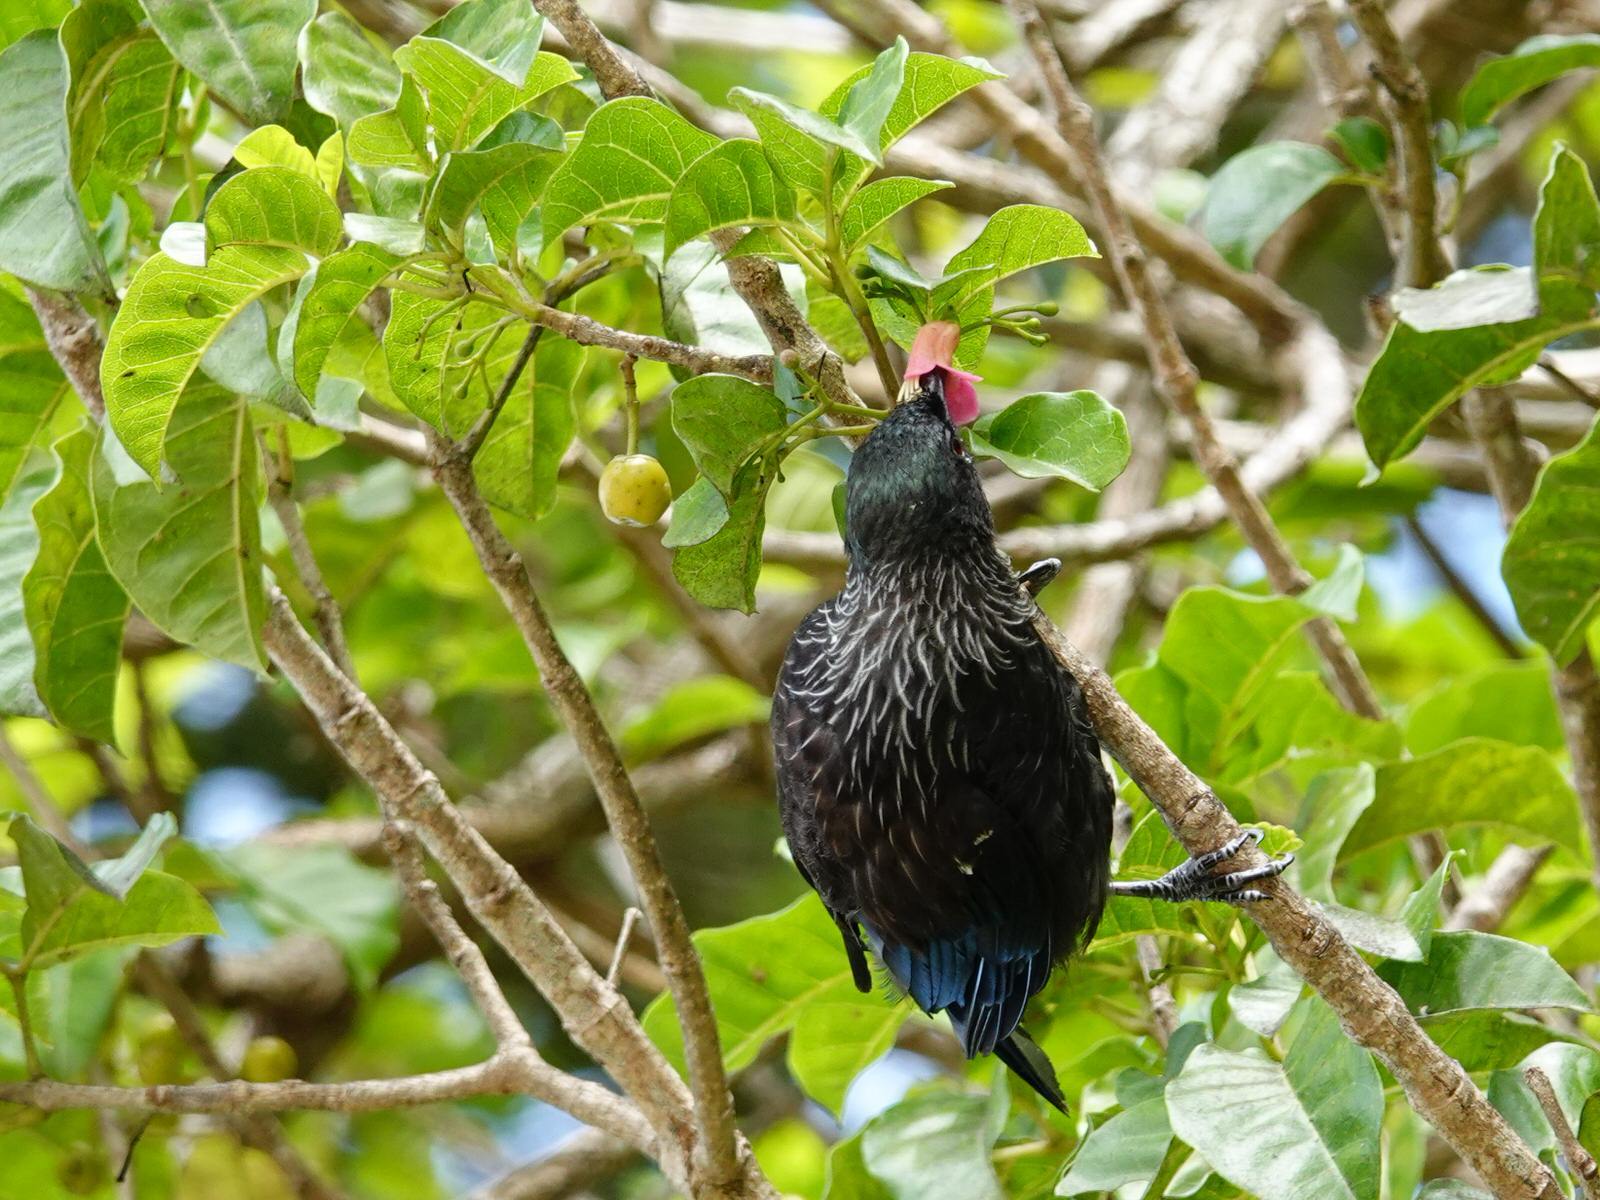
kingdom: Animalia
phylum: Chordata
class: Aves
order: Passeriformes
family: Meliphagidae
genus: Prosthemadera
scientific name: Prosthemadera novaeseelandiae
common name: Tui
